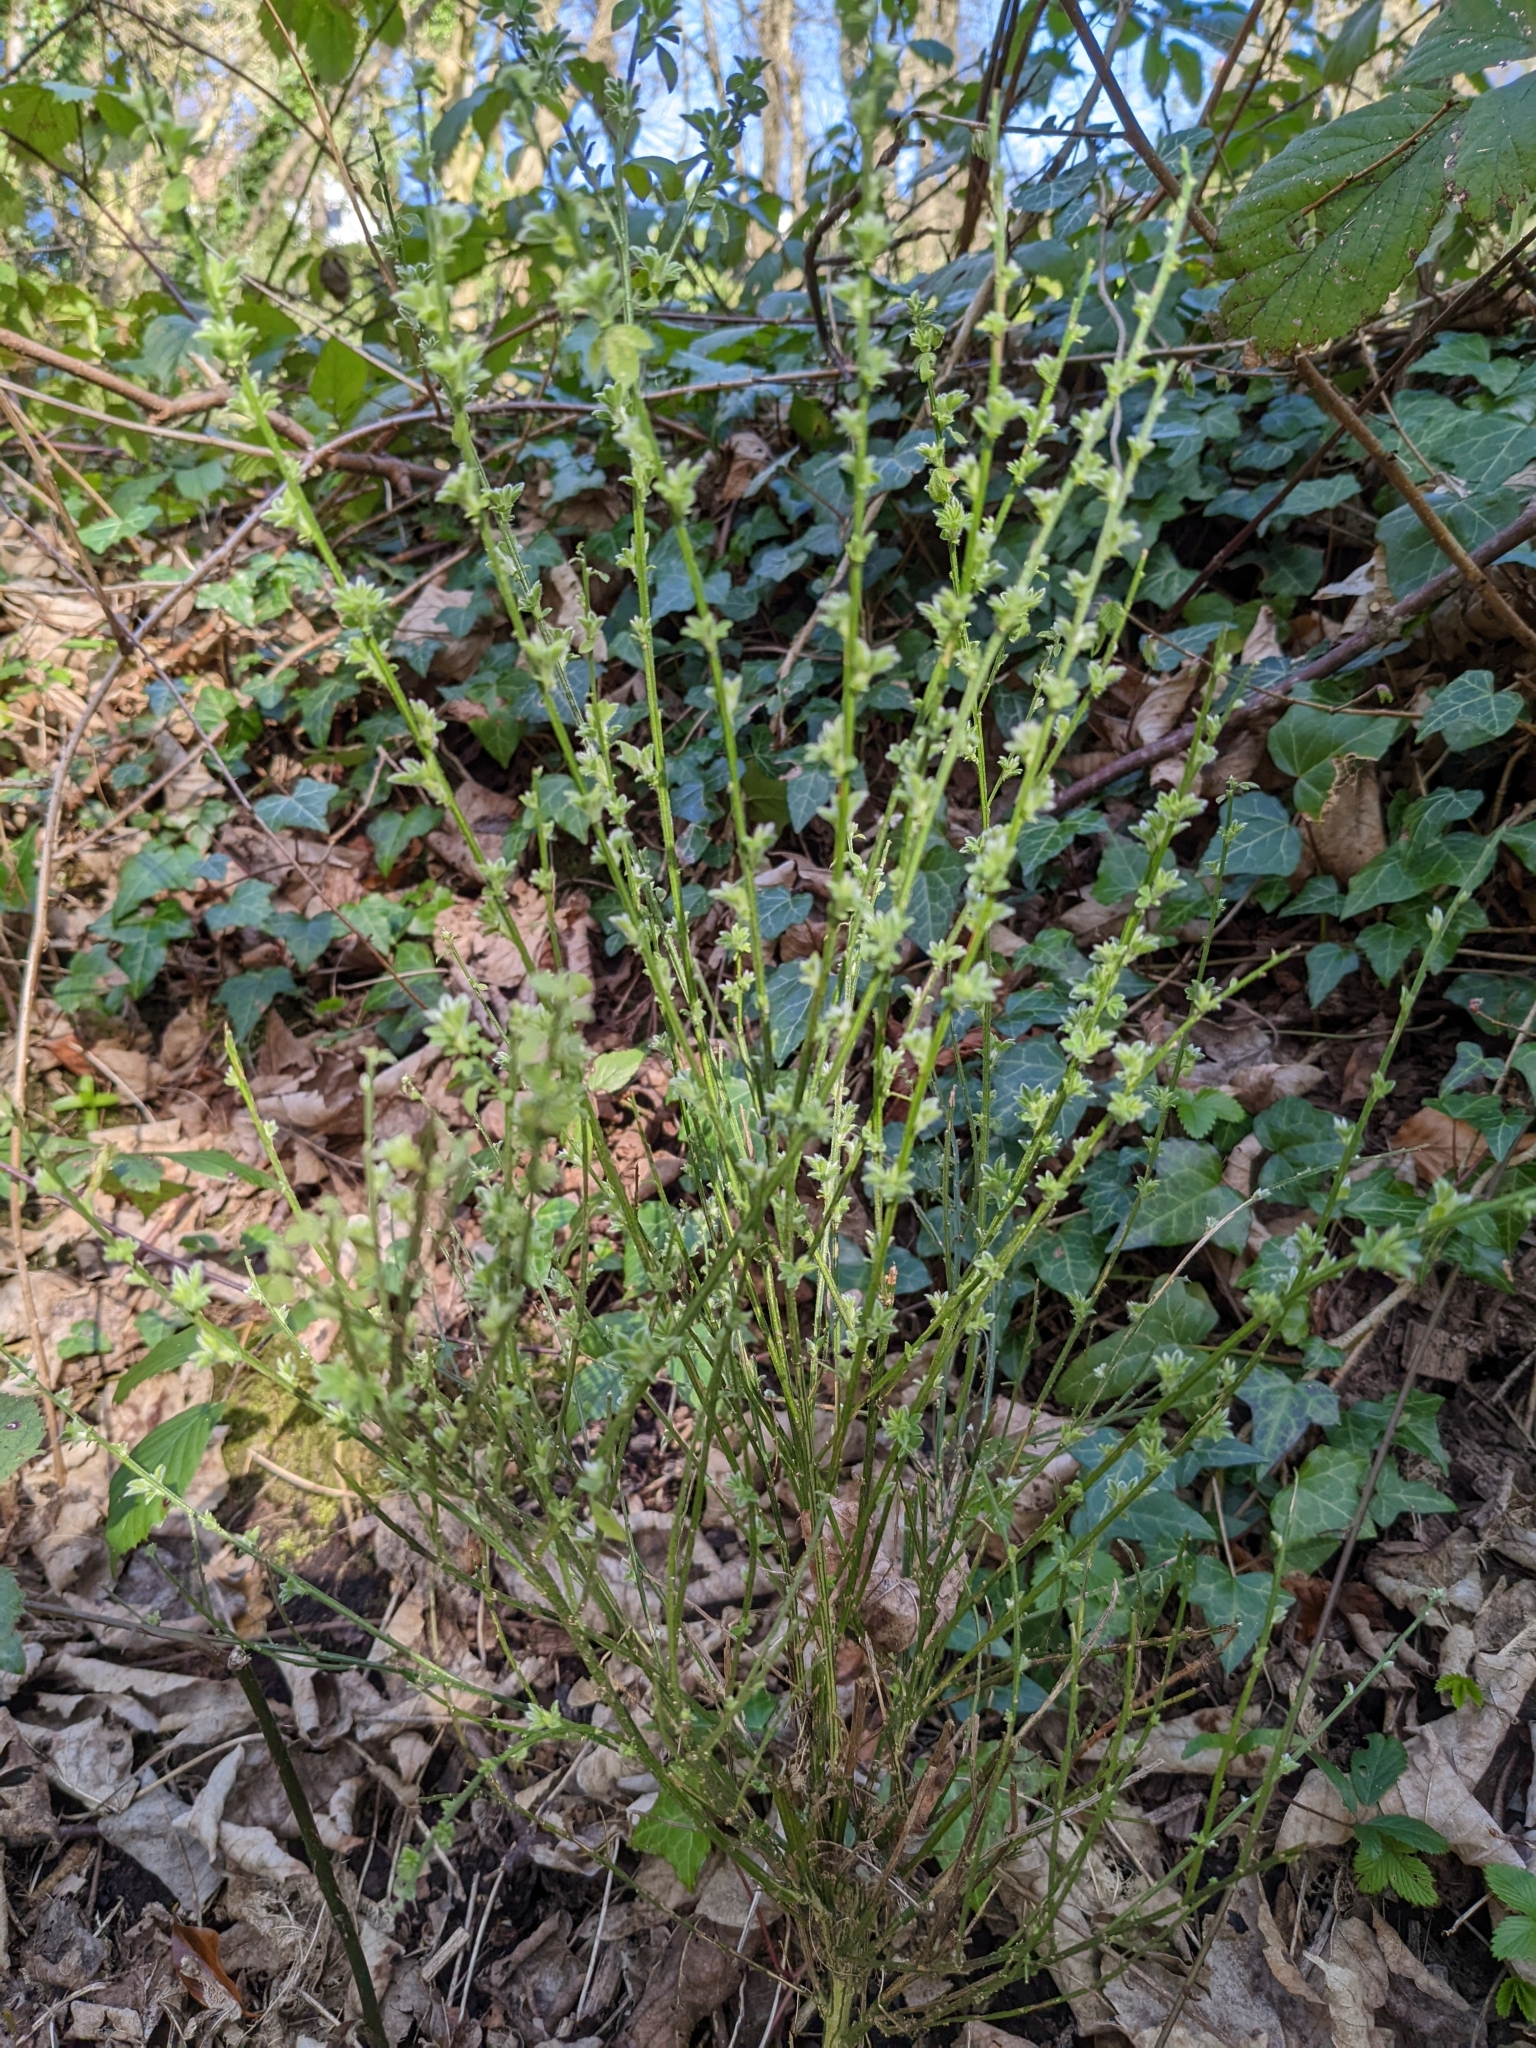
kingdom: Plantae
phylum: Tracheophyta
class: Magnoliopsida
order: Fabales
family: Fabaceae
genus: Cytisus
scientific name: Cytisus scoparius
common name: Scotch broom
